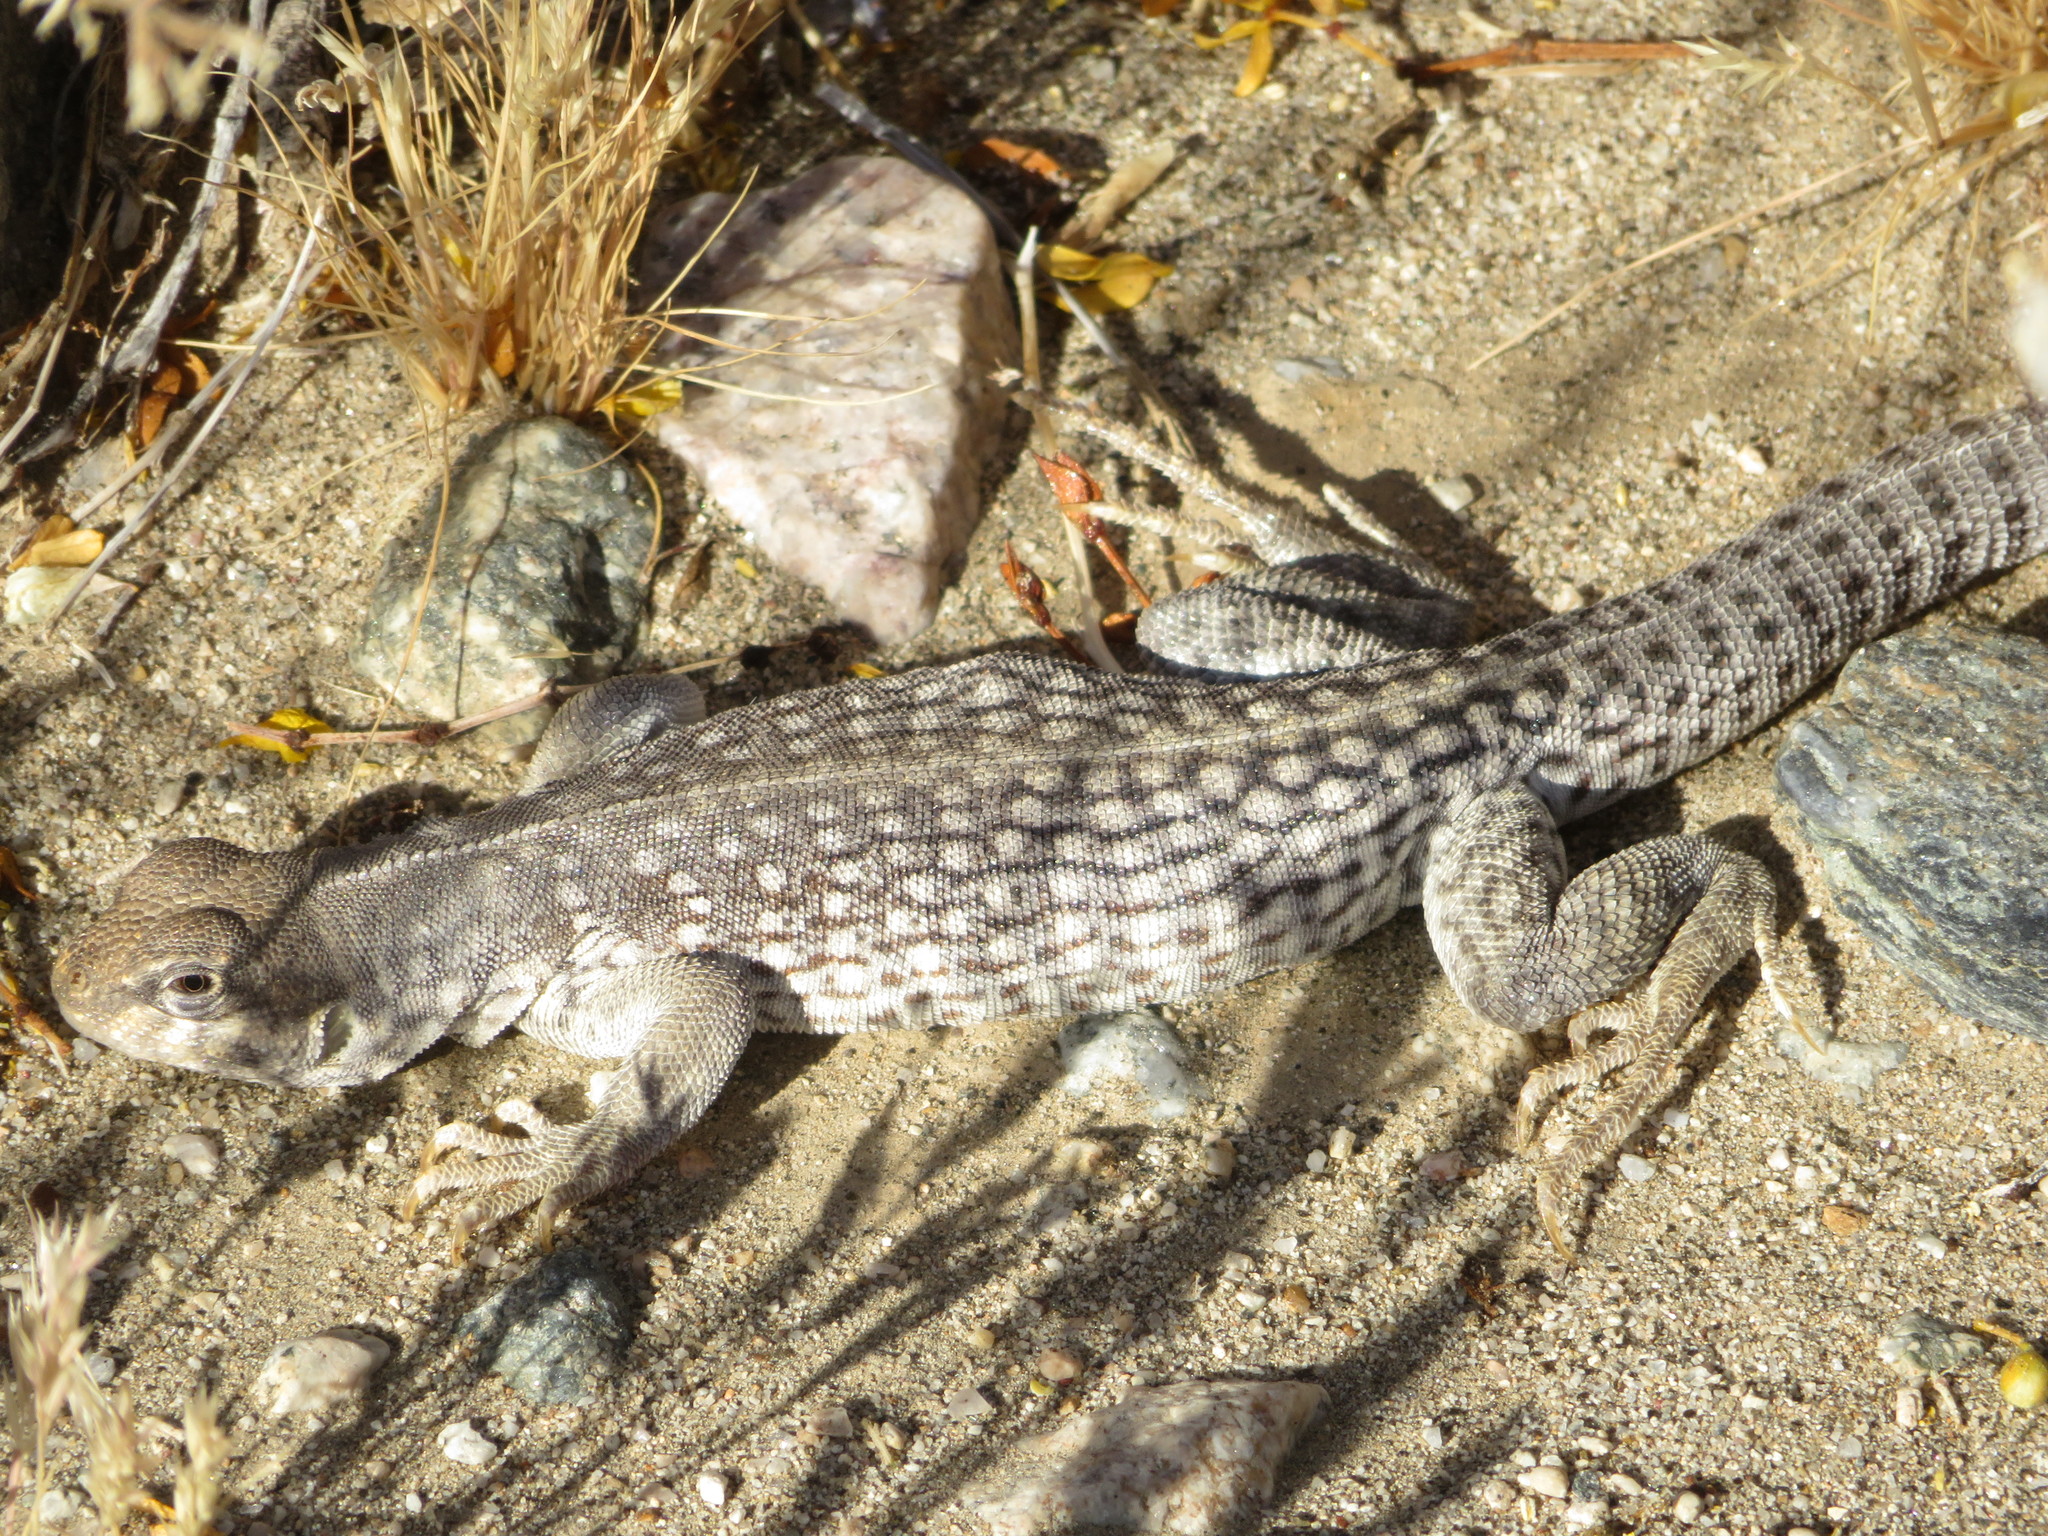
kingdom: Animalia
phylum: Chordata
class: Squamata
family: Iguanidae
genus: Dipsosaurus
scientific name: Dipsosaurus dorsalis
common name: Desert iguana
